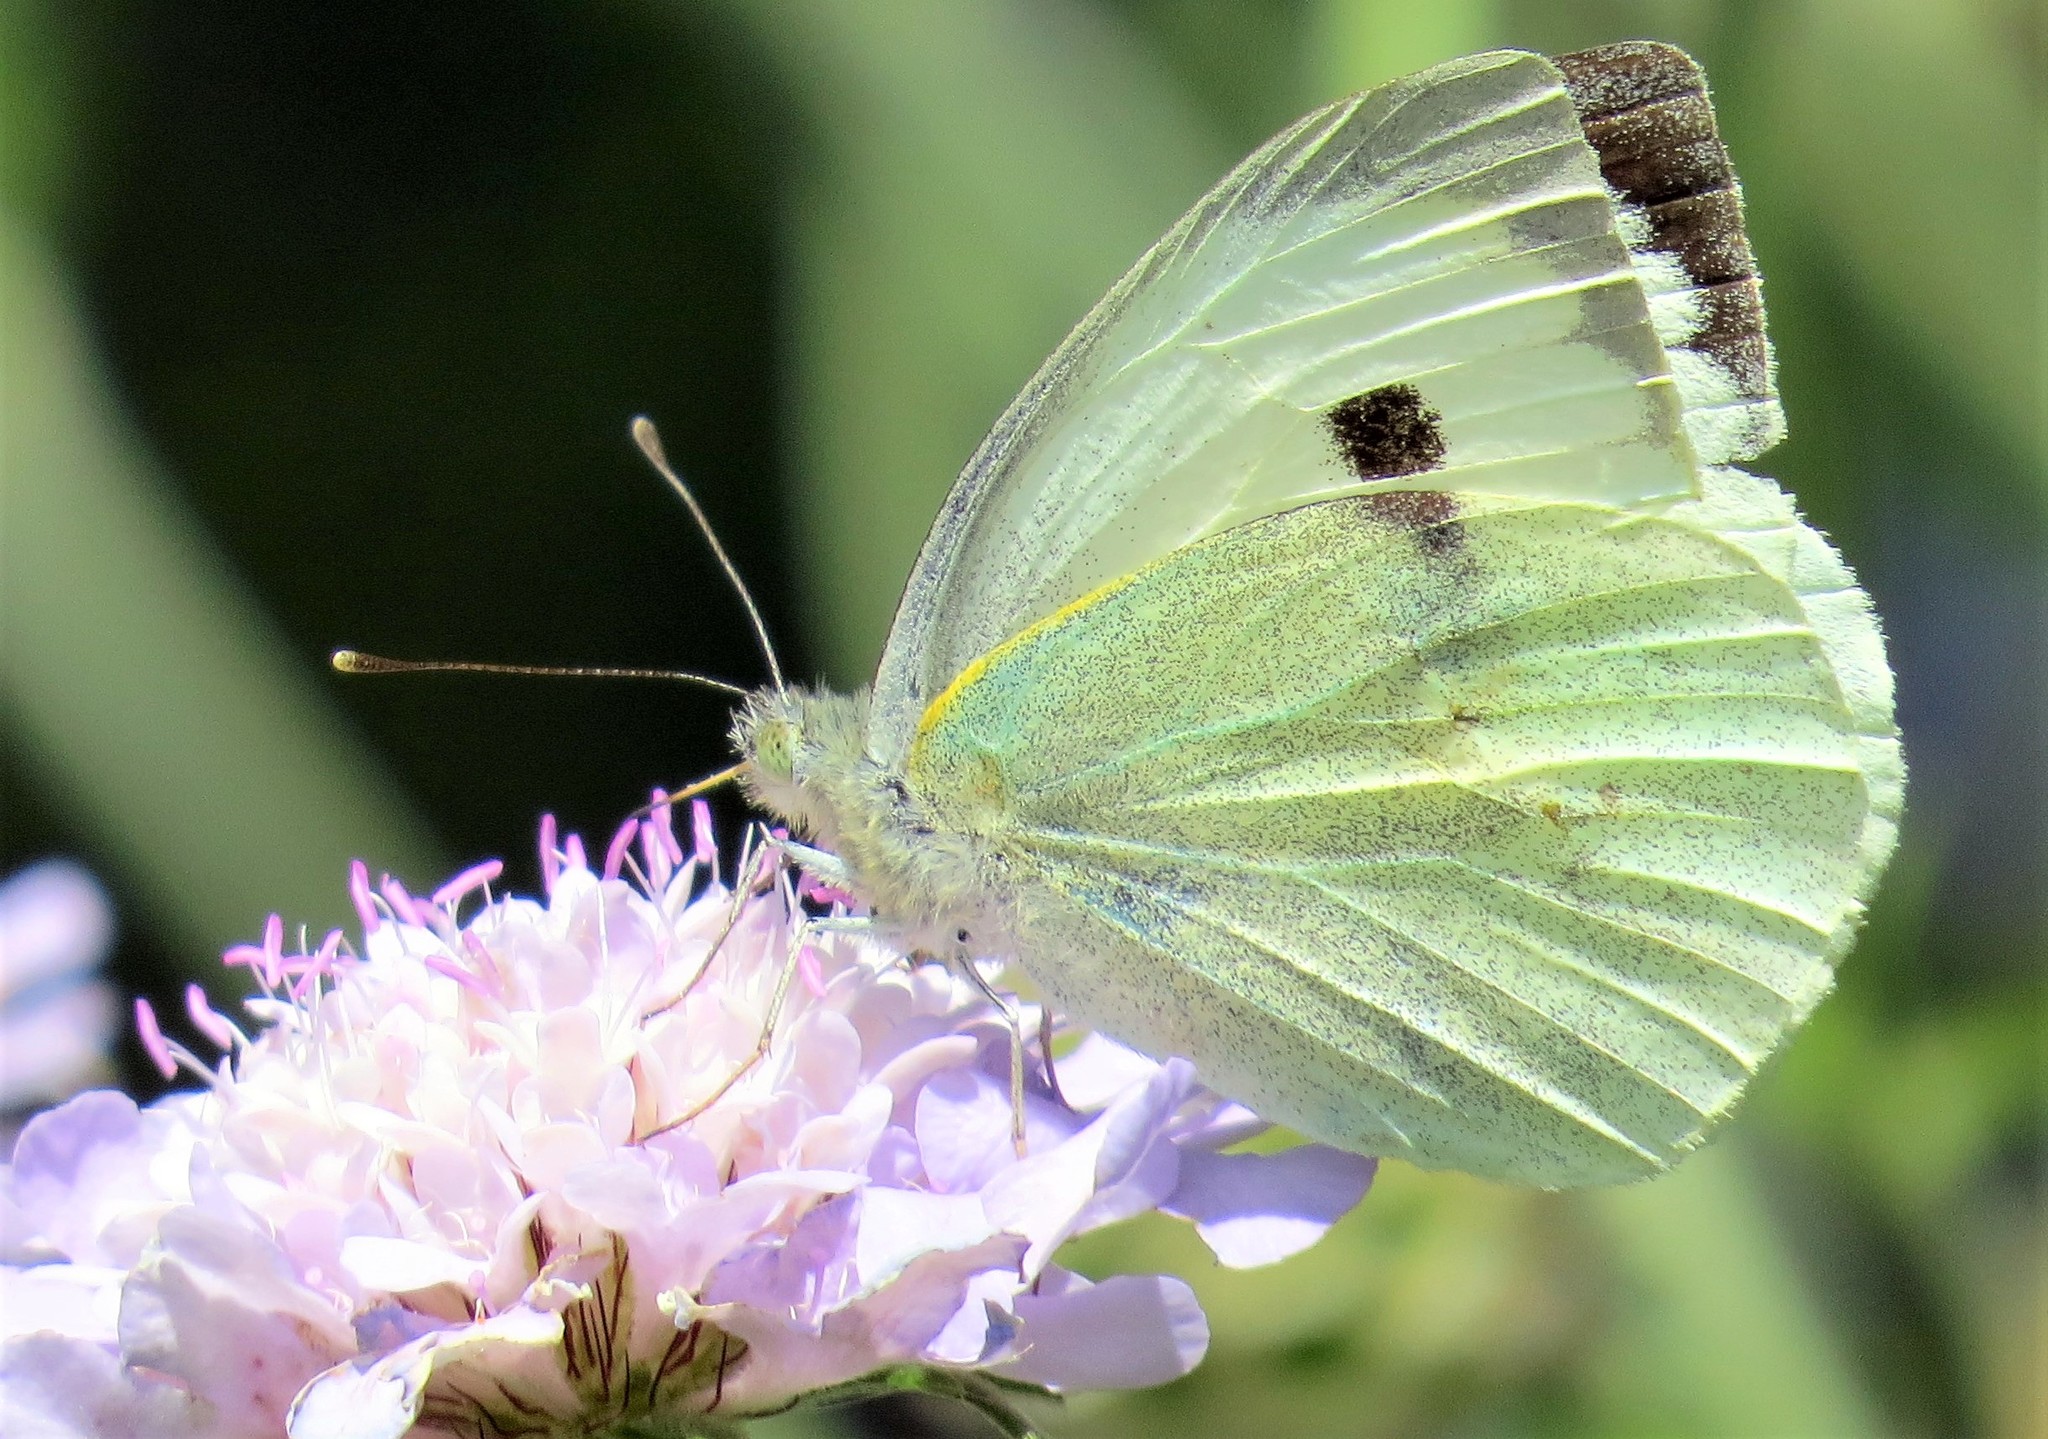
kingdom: Animalia
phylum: Arthropoda
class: Insecta
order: Lepidoptera
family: Pieridae
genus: Pieris
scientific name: Pieris brassicae
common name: Large white
